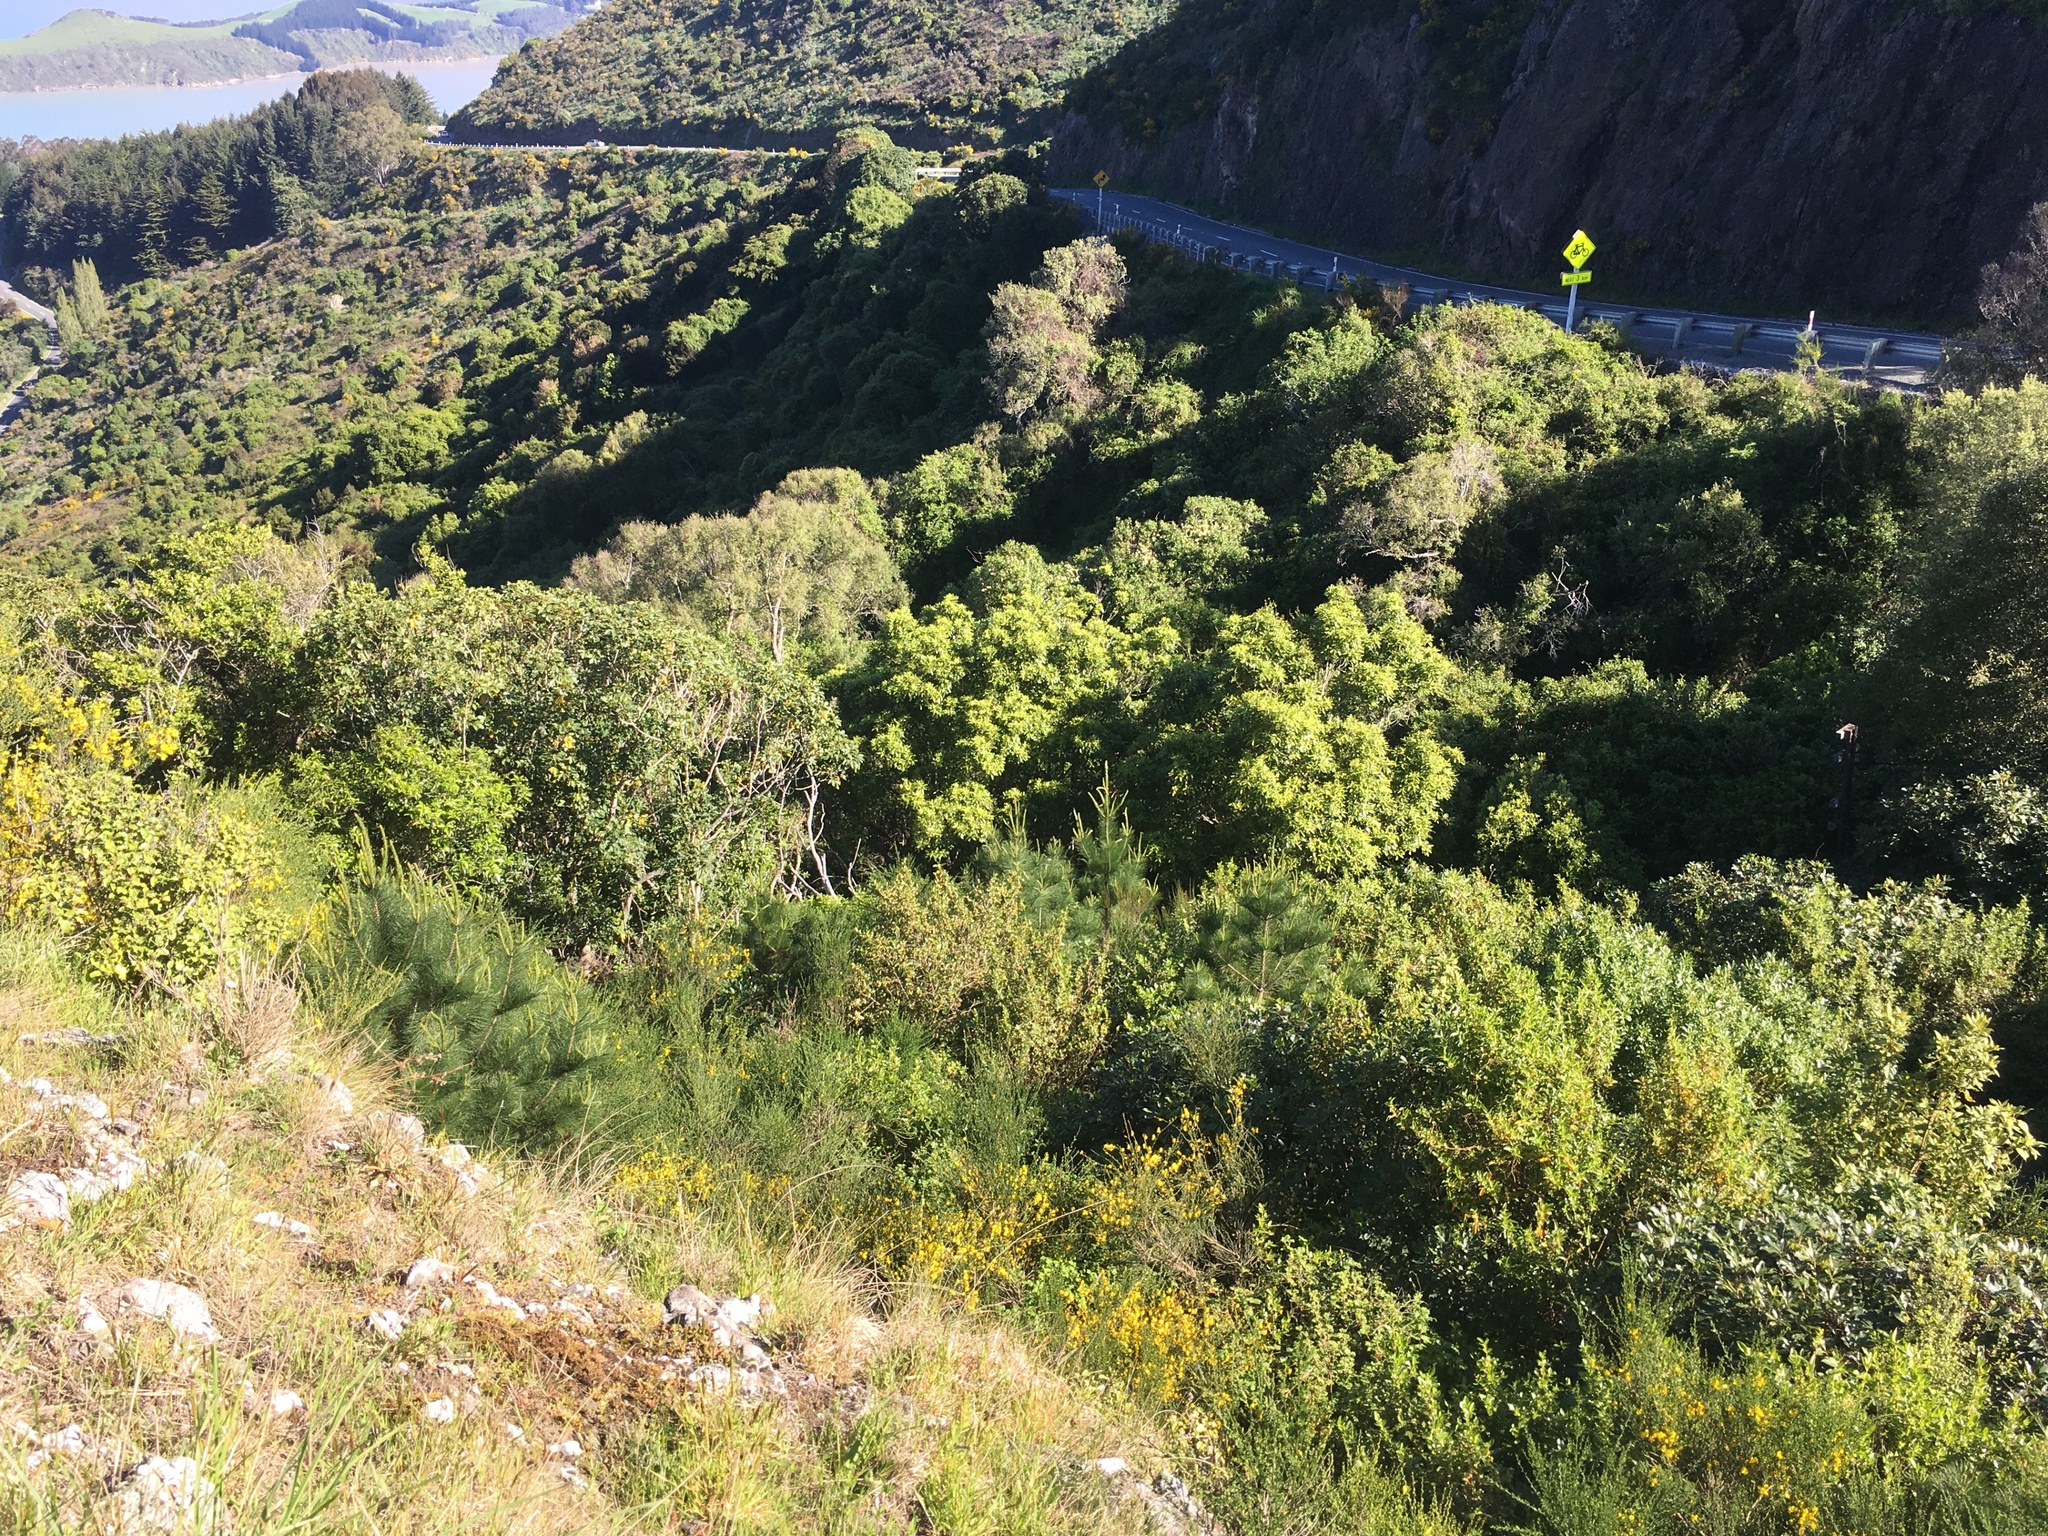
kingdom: Plantae
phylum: Tracheophyta
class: Pinopsida
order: Pinales
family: Pinaceae
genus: Pinus
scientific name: Pinus radiata
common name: Monterey pine
